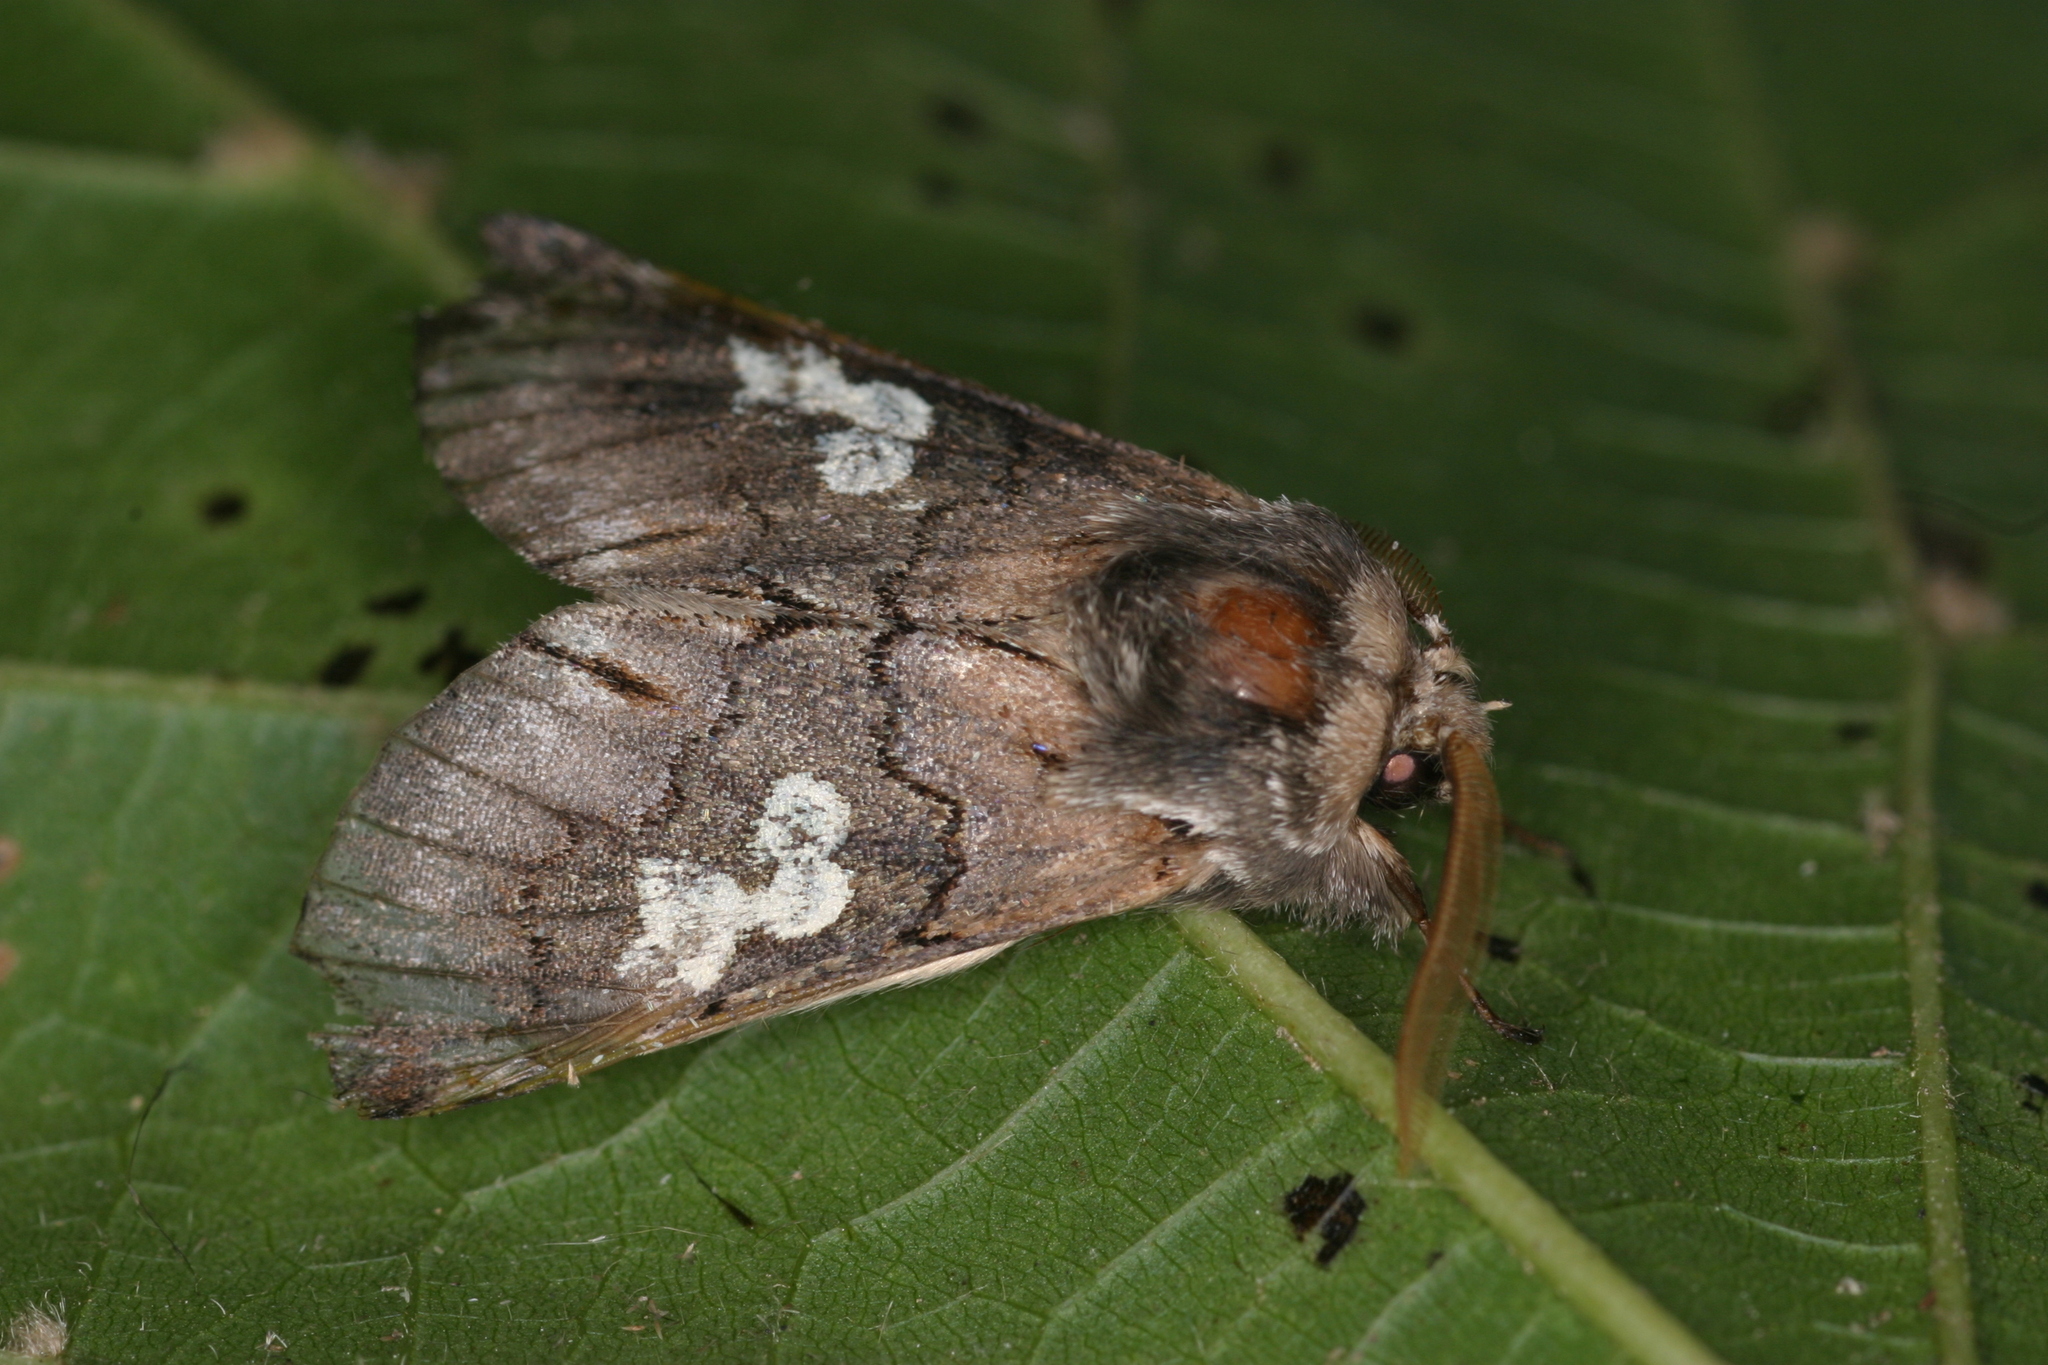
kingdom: Animalia
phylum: Arthropoda
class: Insecta
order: Lepidoptera
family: Noctuidae
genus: Diloba
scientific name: Diloba caeruleocephala
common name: Figure of eight
